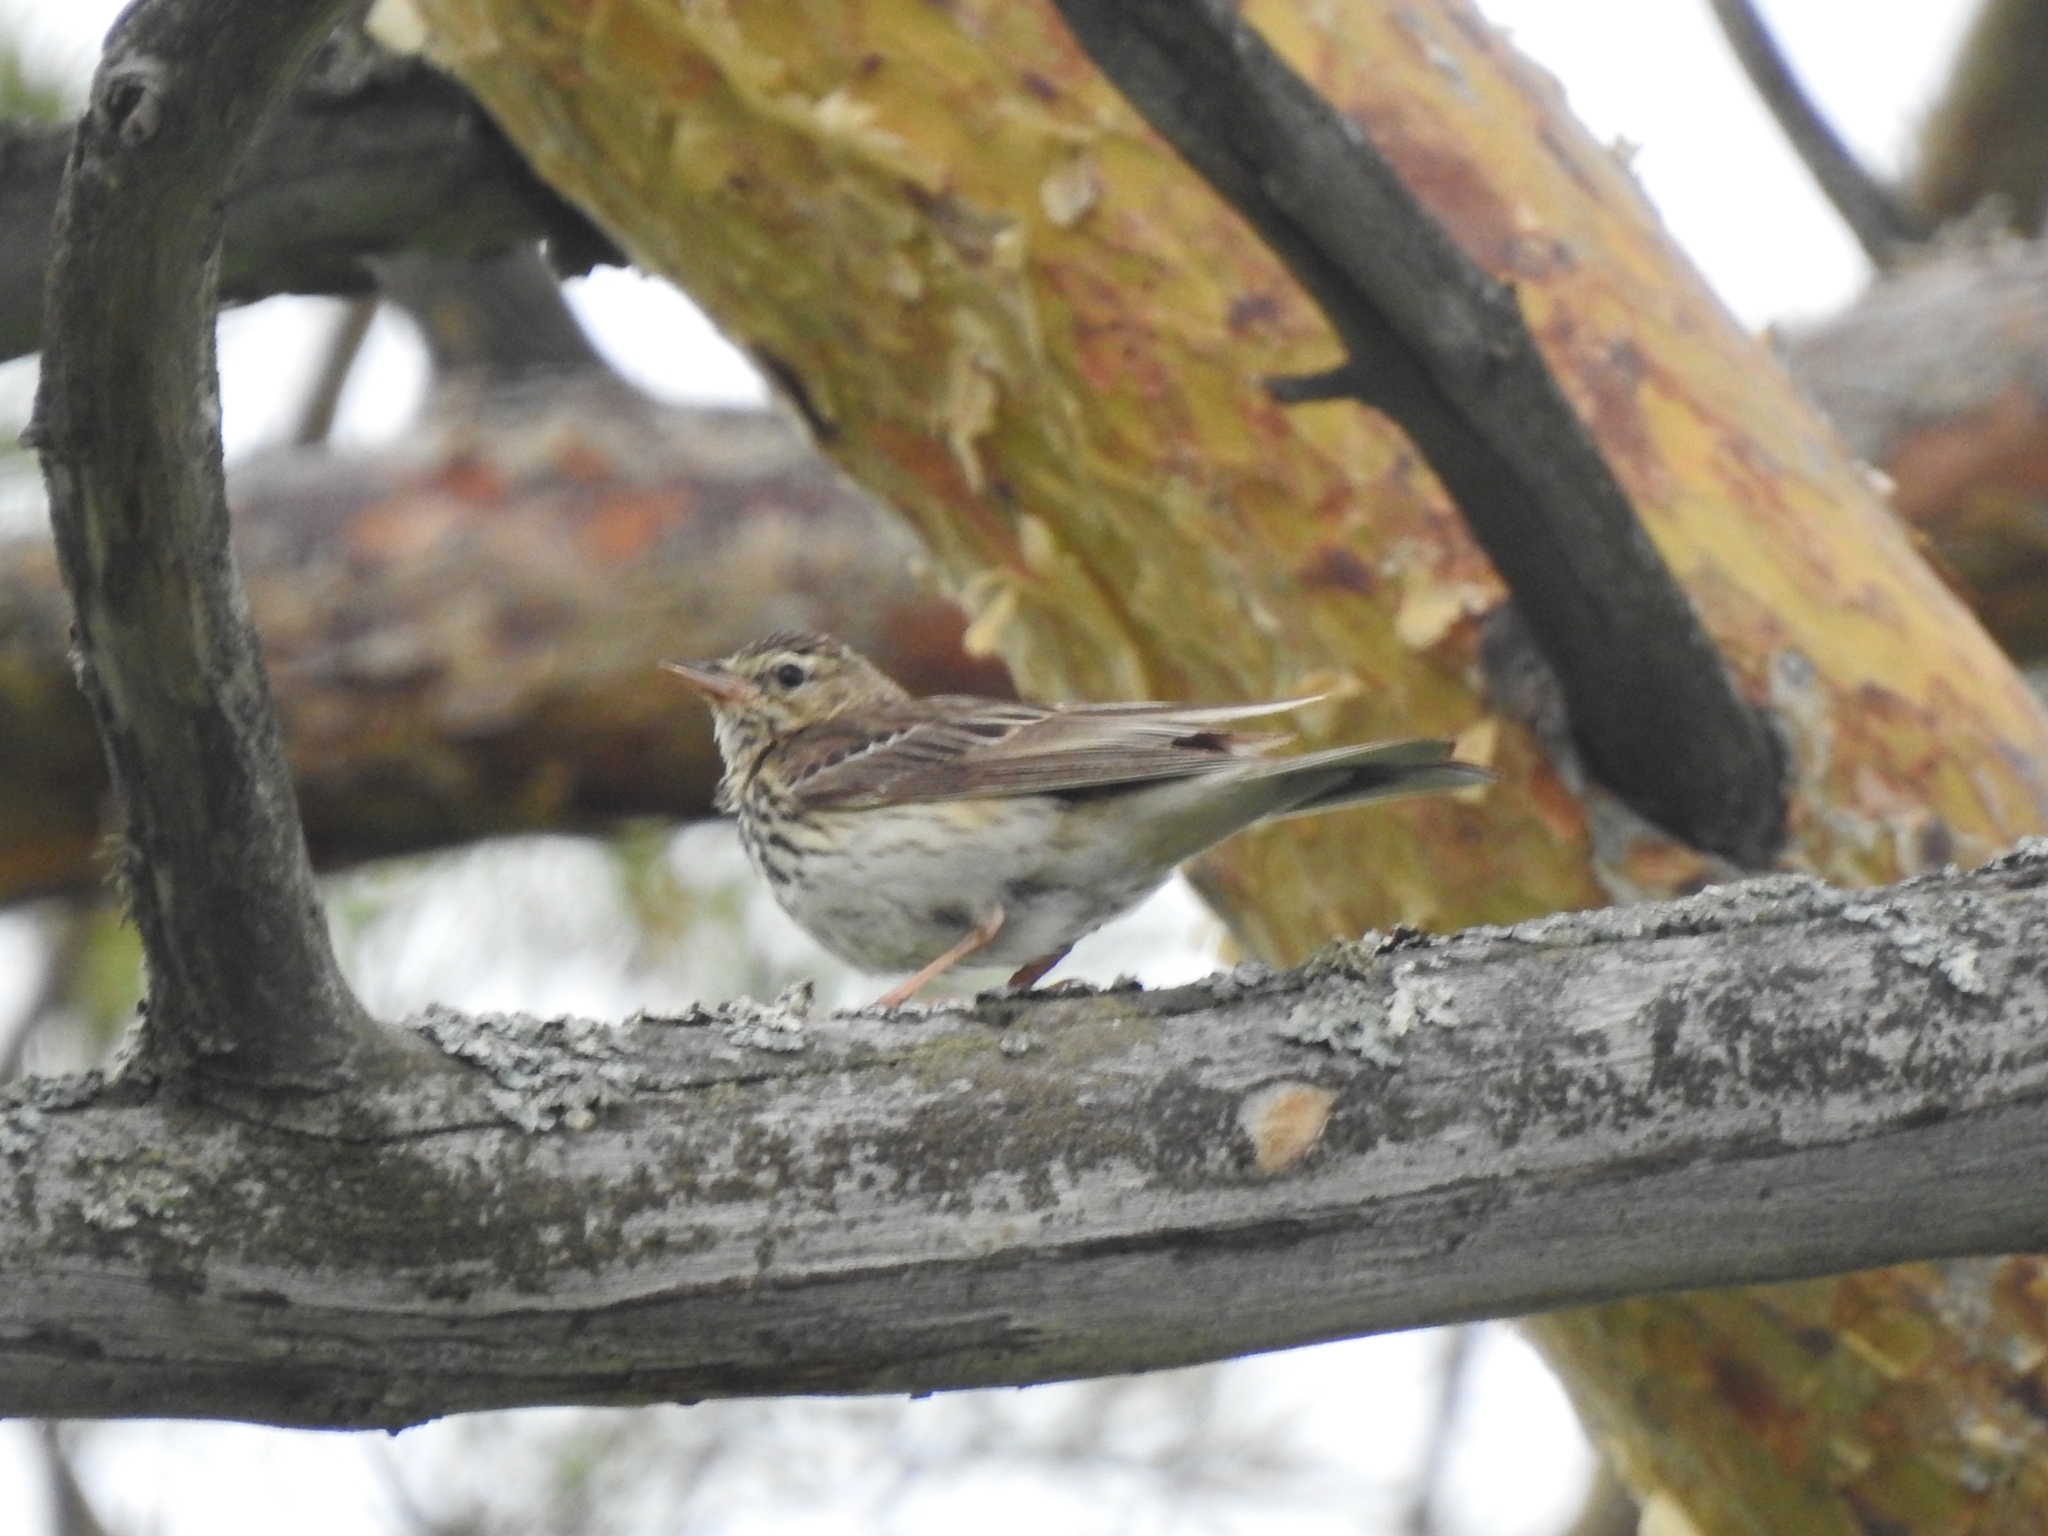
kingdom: Animalia
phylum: Chordata
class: Aves
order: Passeriformes
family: Motacillidae
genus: Anthus
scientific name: Anthus trivialis
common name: Tree pipit
